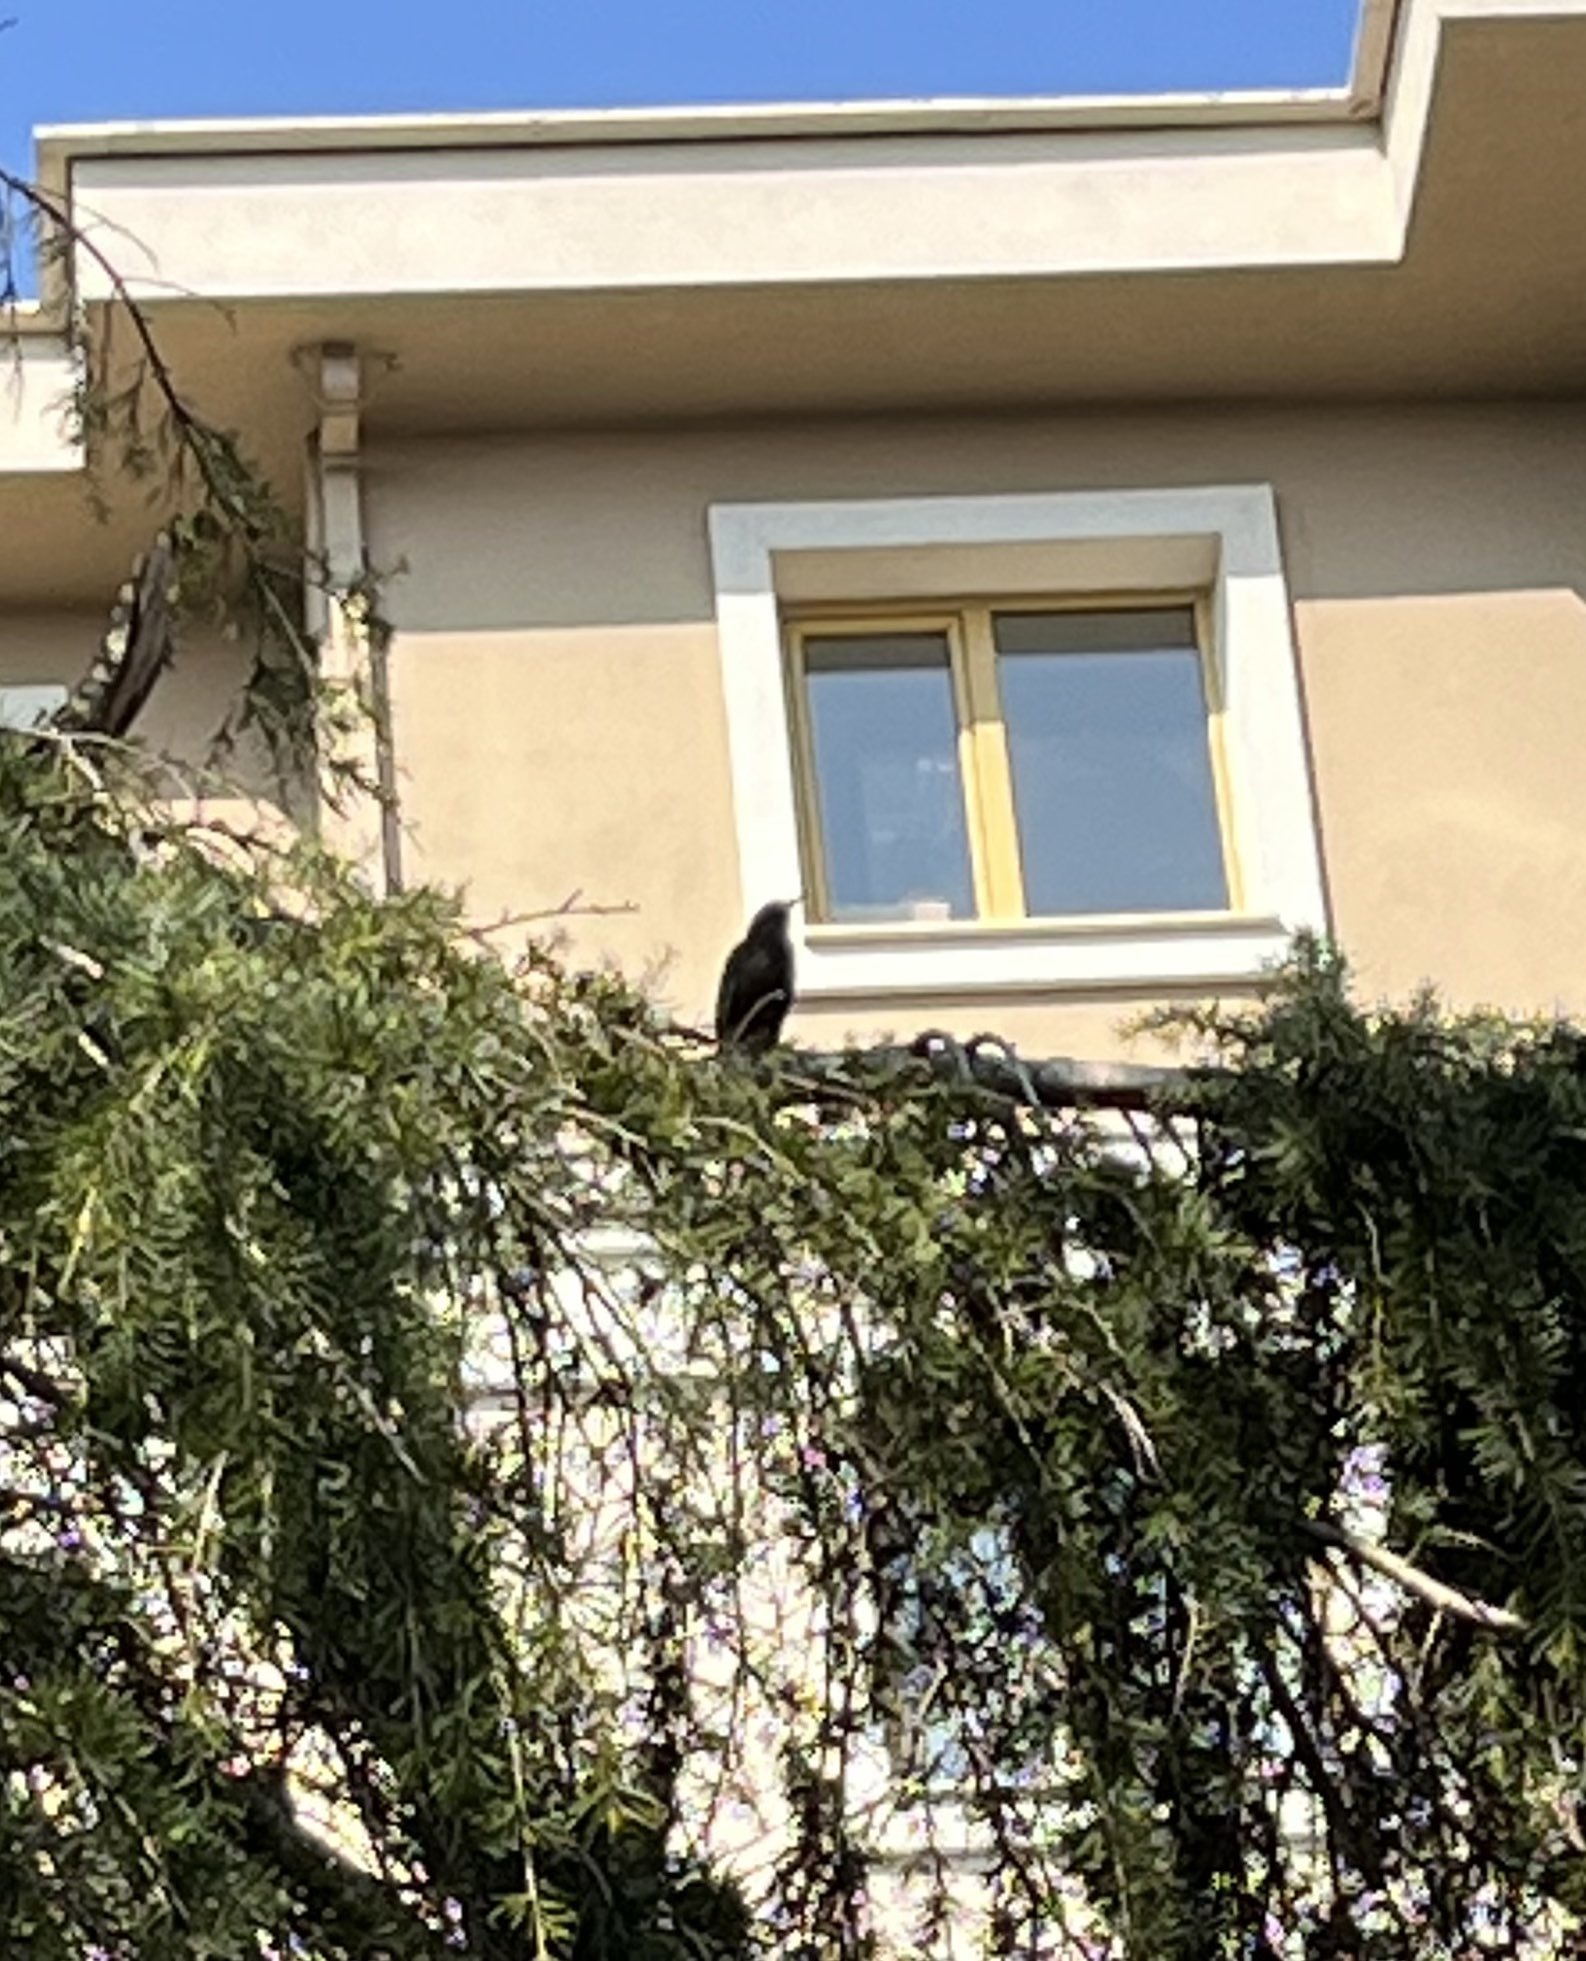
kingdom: Animalia
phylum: Chordata
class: Aves
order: Passeriformes
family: Turdidae
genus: Turdus
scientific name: Turdus merula
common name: Common blackbird
